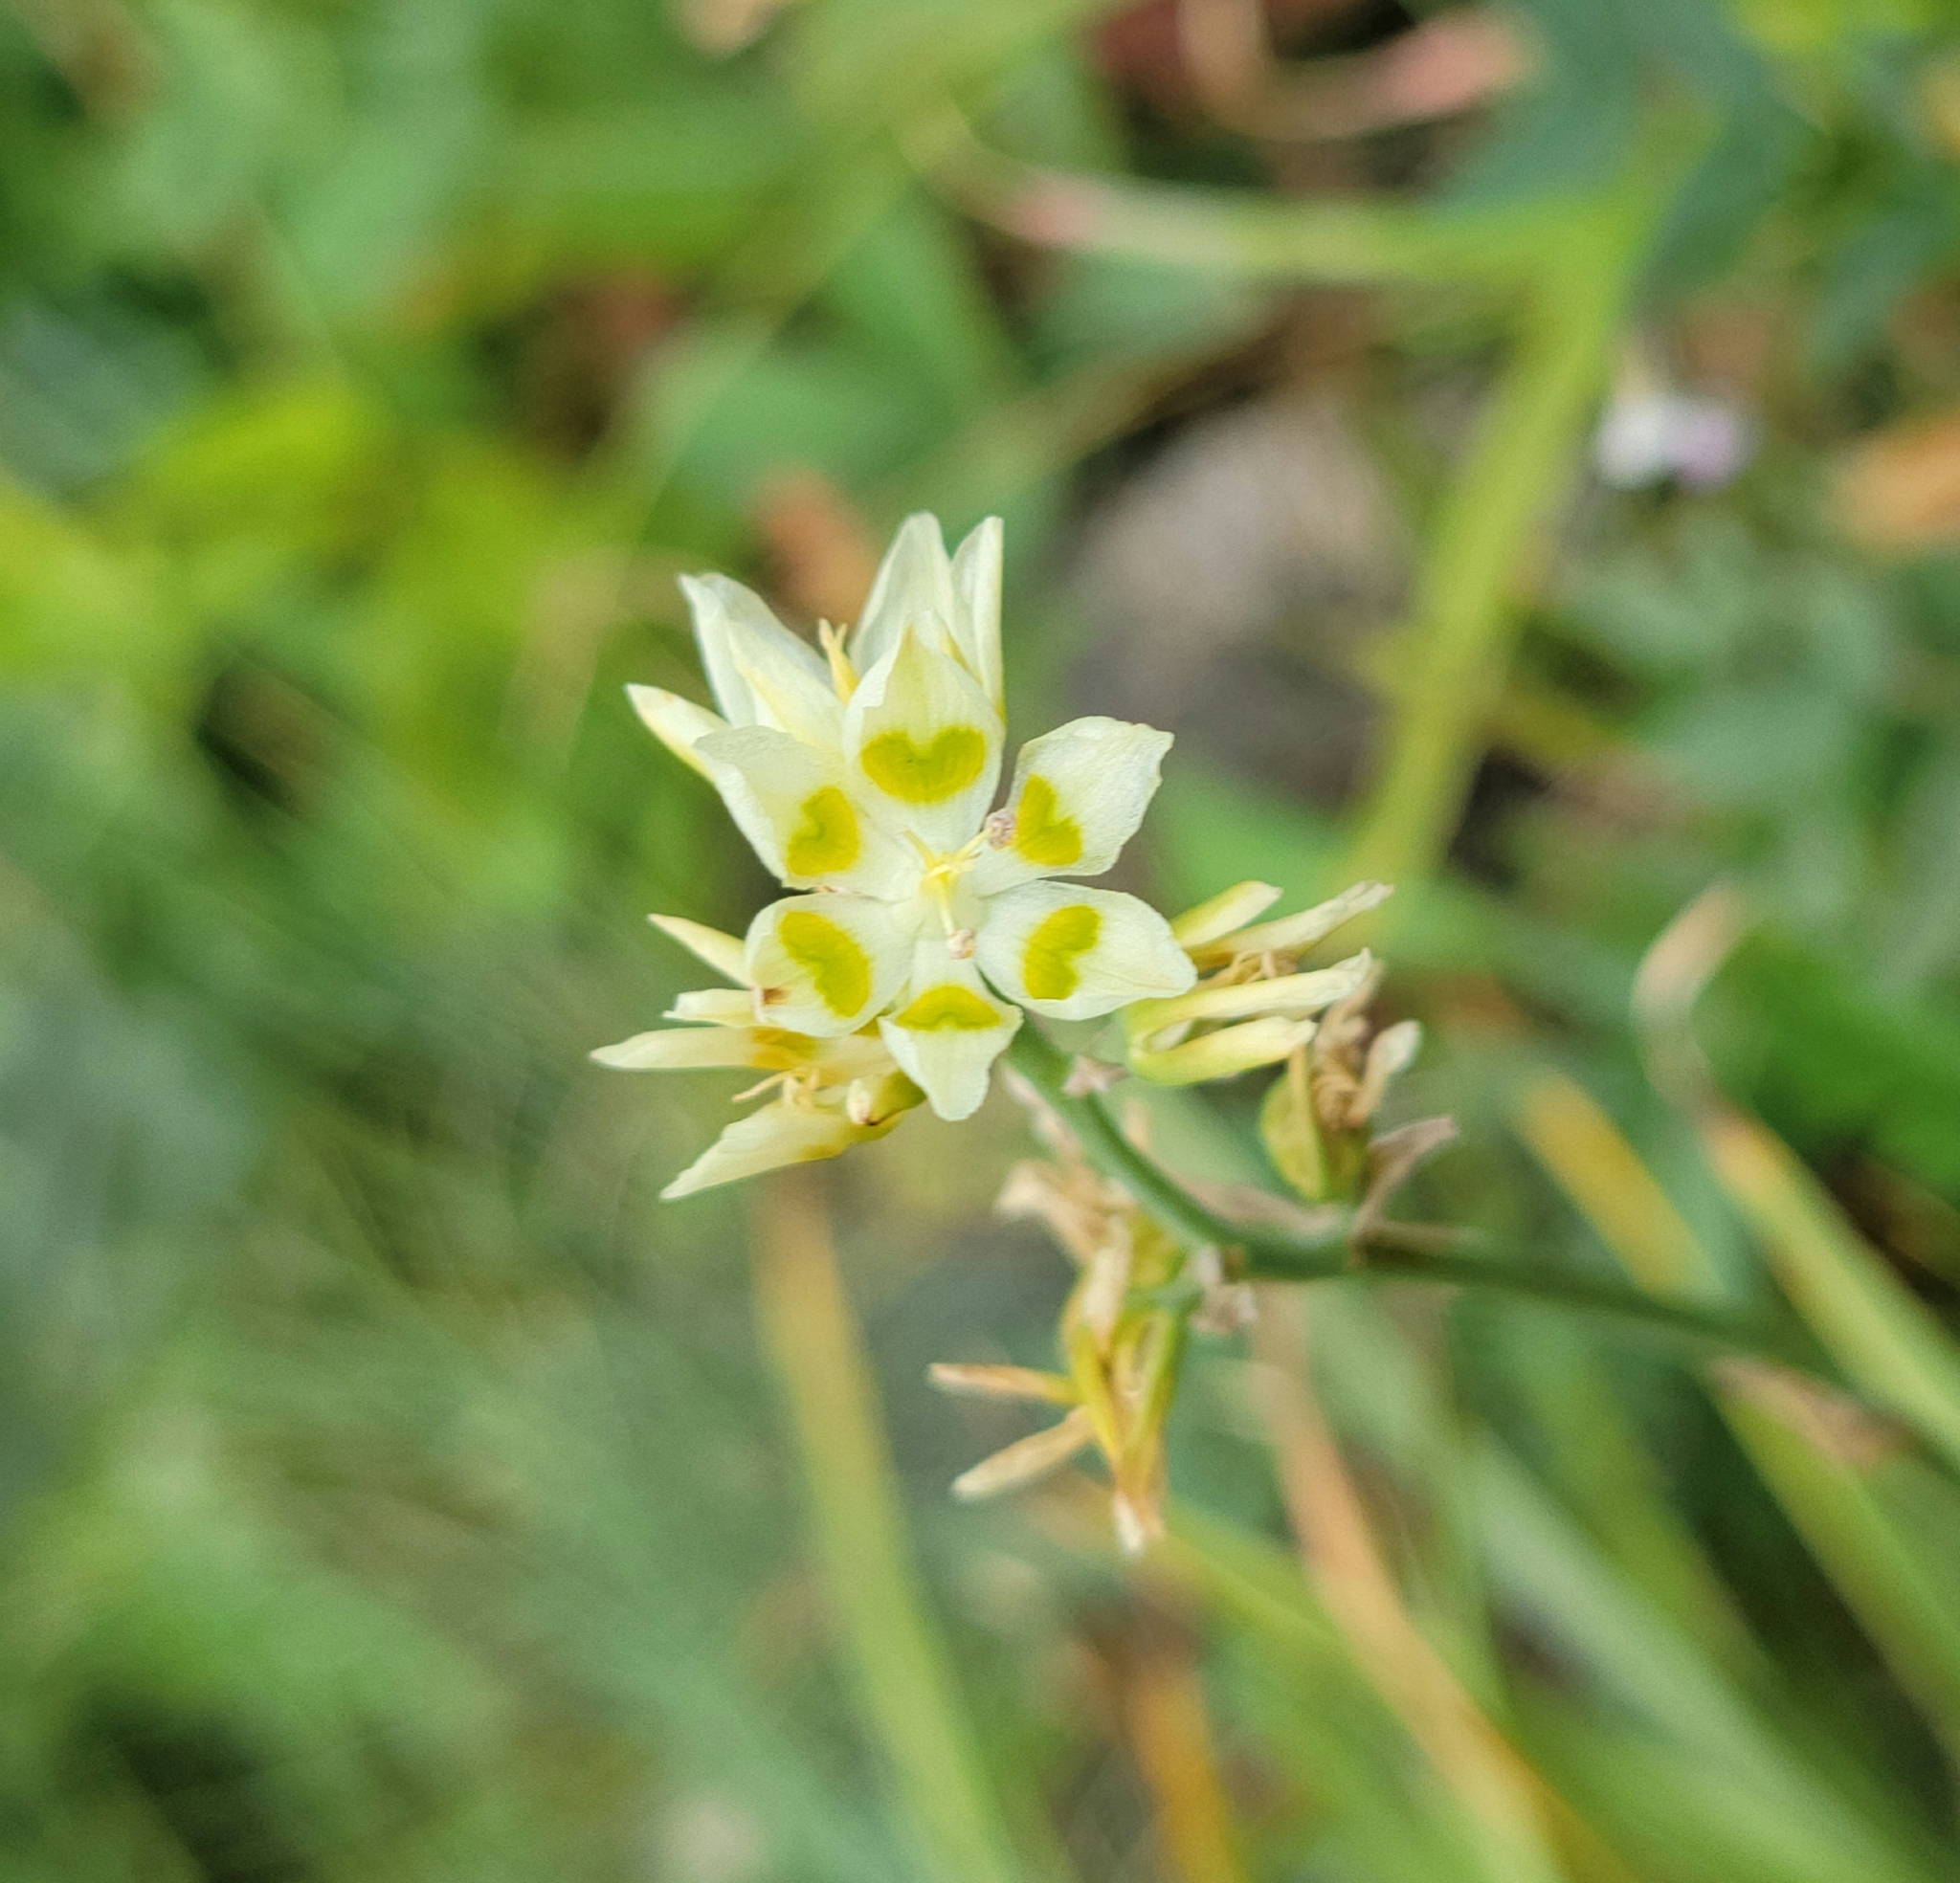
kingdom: Plantae
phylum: Tracheophyta
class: Liliopsida
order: Liliales
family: Melanthiaceae
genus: Anticlea
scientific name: Anticlea elegans
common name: Mountain death camas
